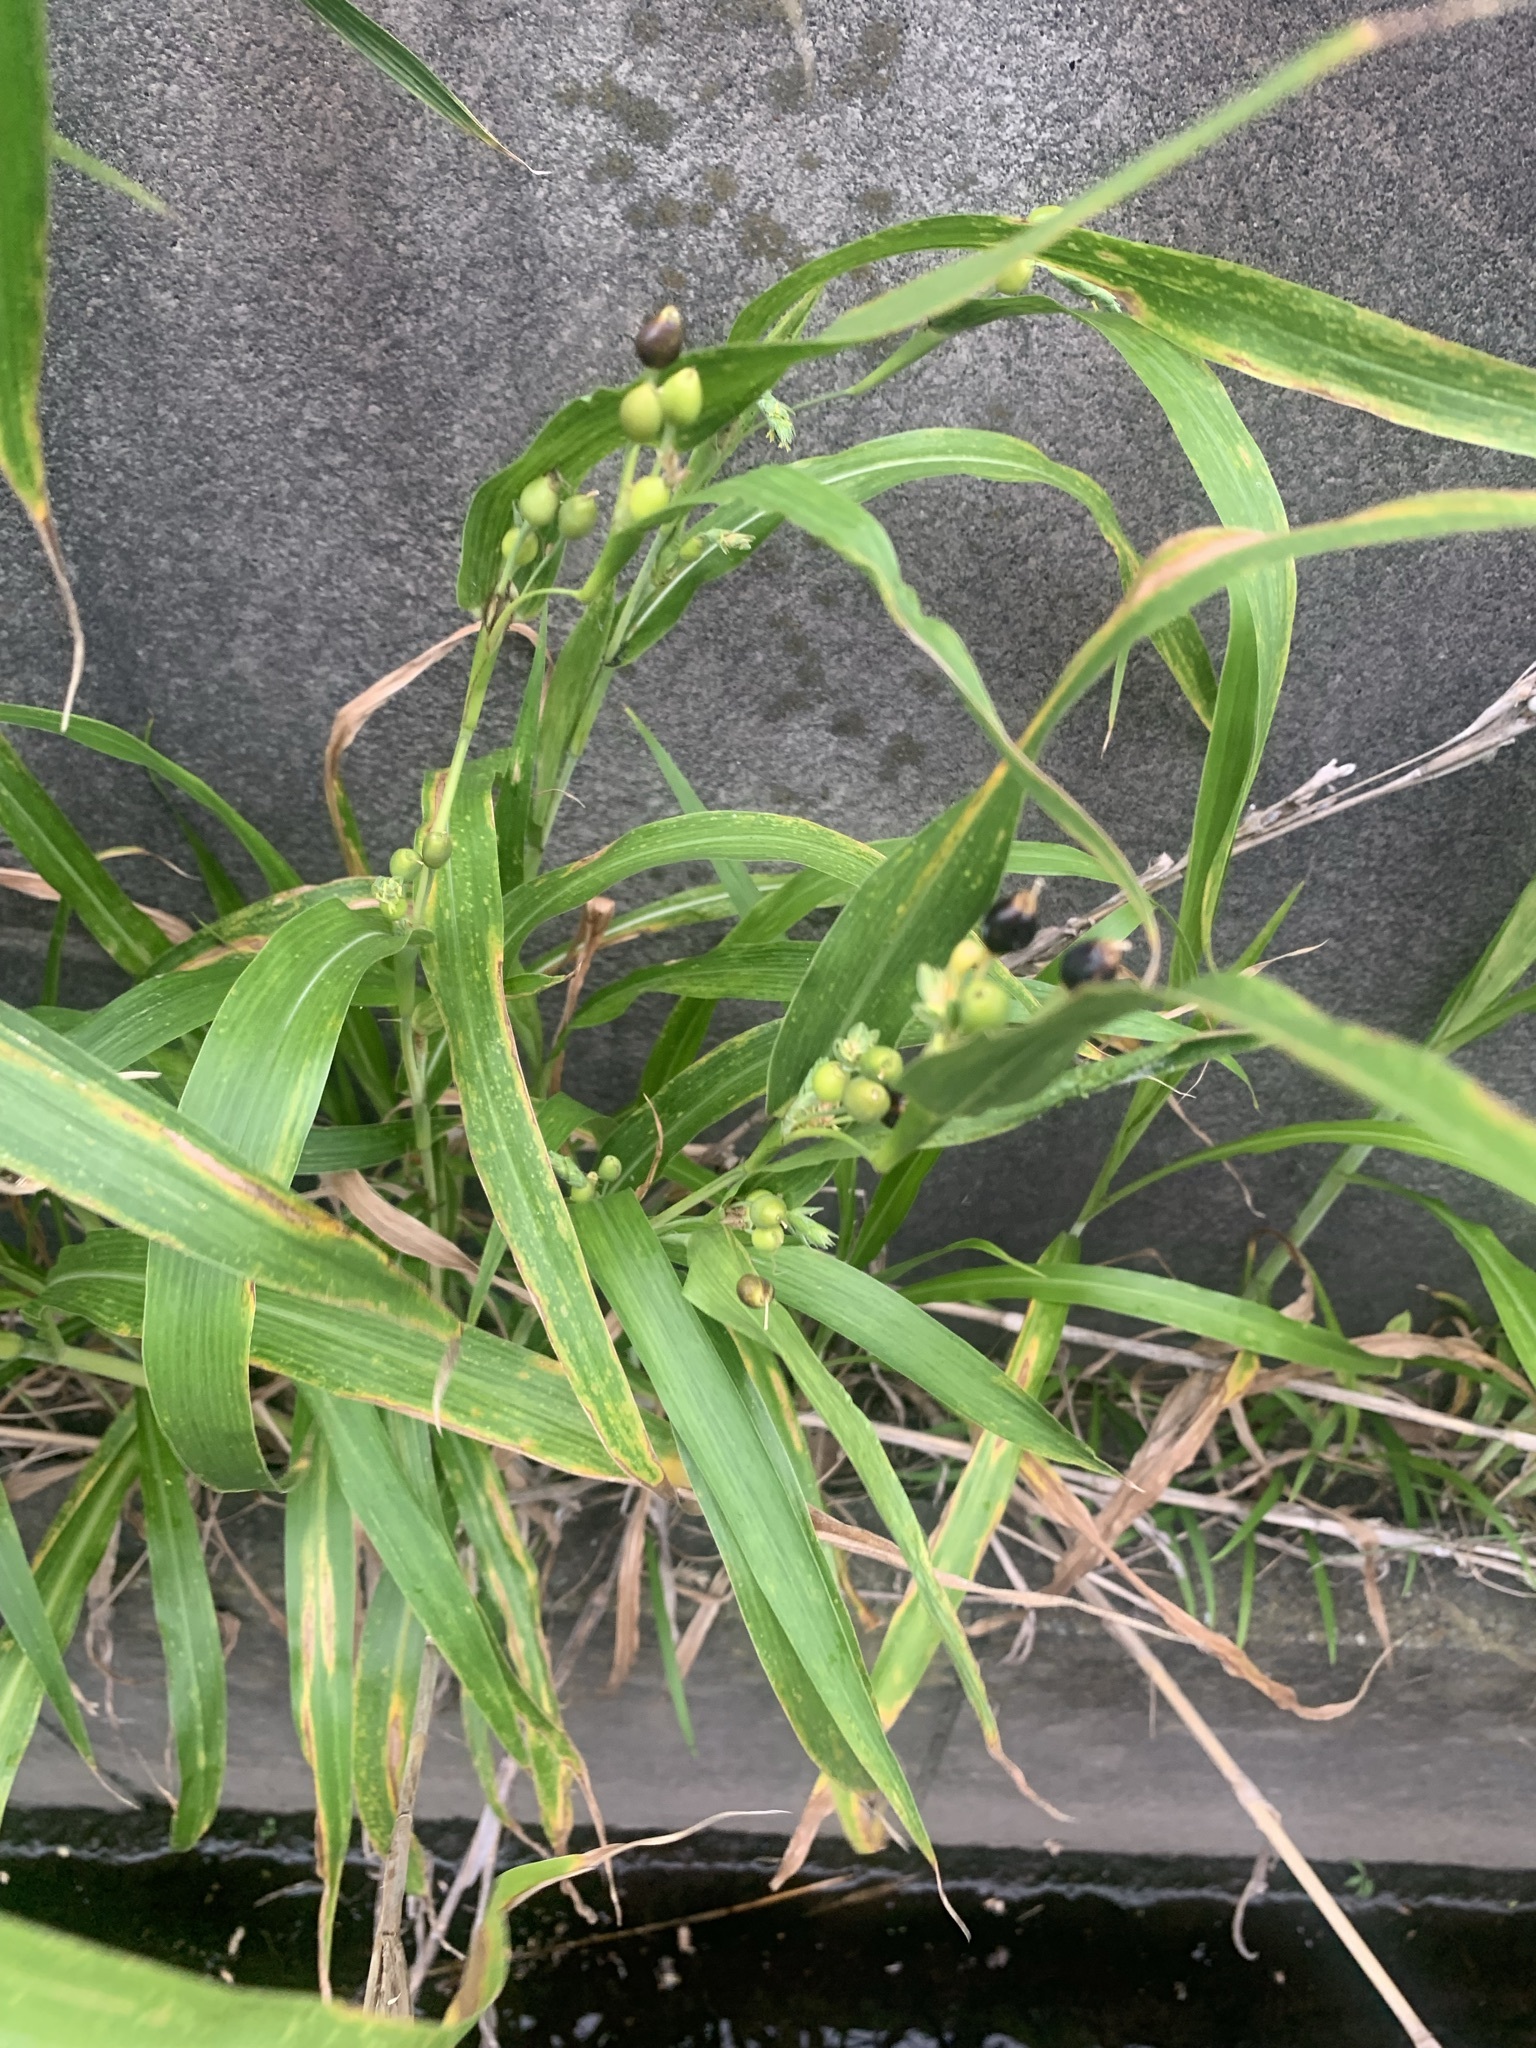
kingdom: Plantae
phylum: Tracheophyta
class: Liliopsida
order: Poales
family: Poaceae
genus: Coix
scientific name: Coix lacryma-jobi
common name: Job's tears
